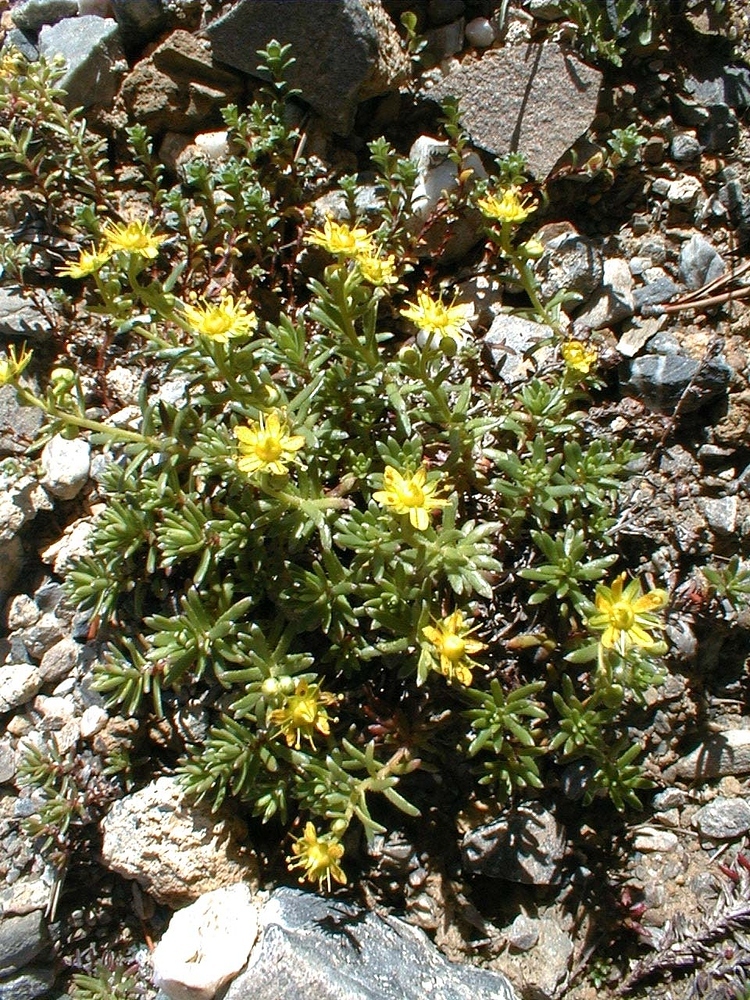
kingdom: Plantae
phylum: Tracheophyta
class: Magnoliopsida
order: Saxifragales
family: Saxifragaceae
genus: Saxifraga
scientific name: Saxifraga aizoides
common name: Yellow mountain saxifrage
